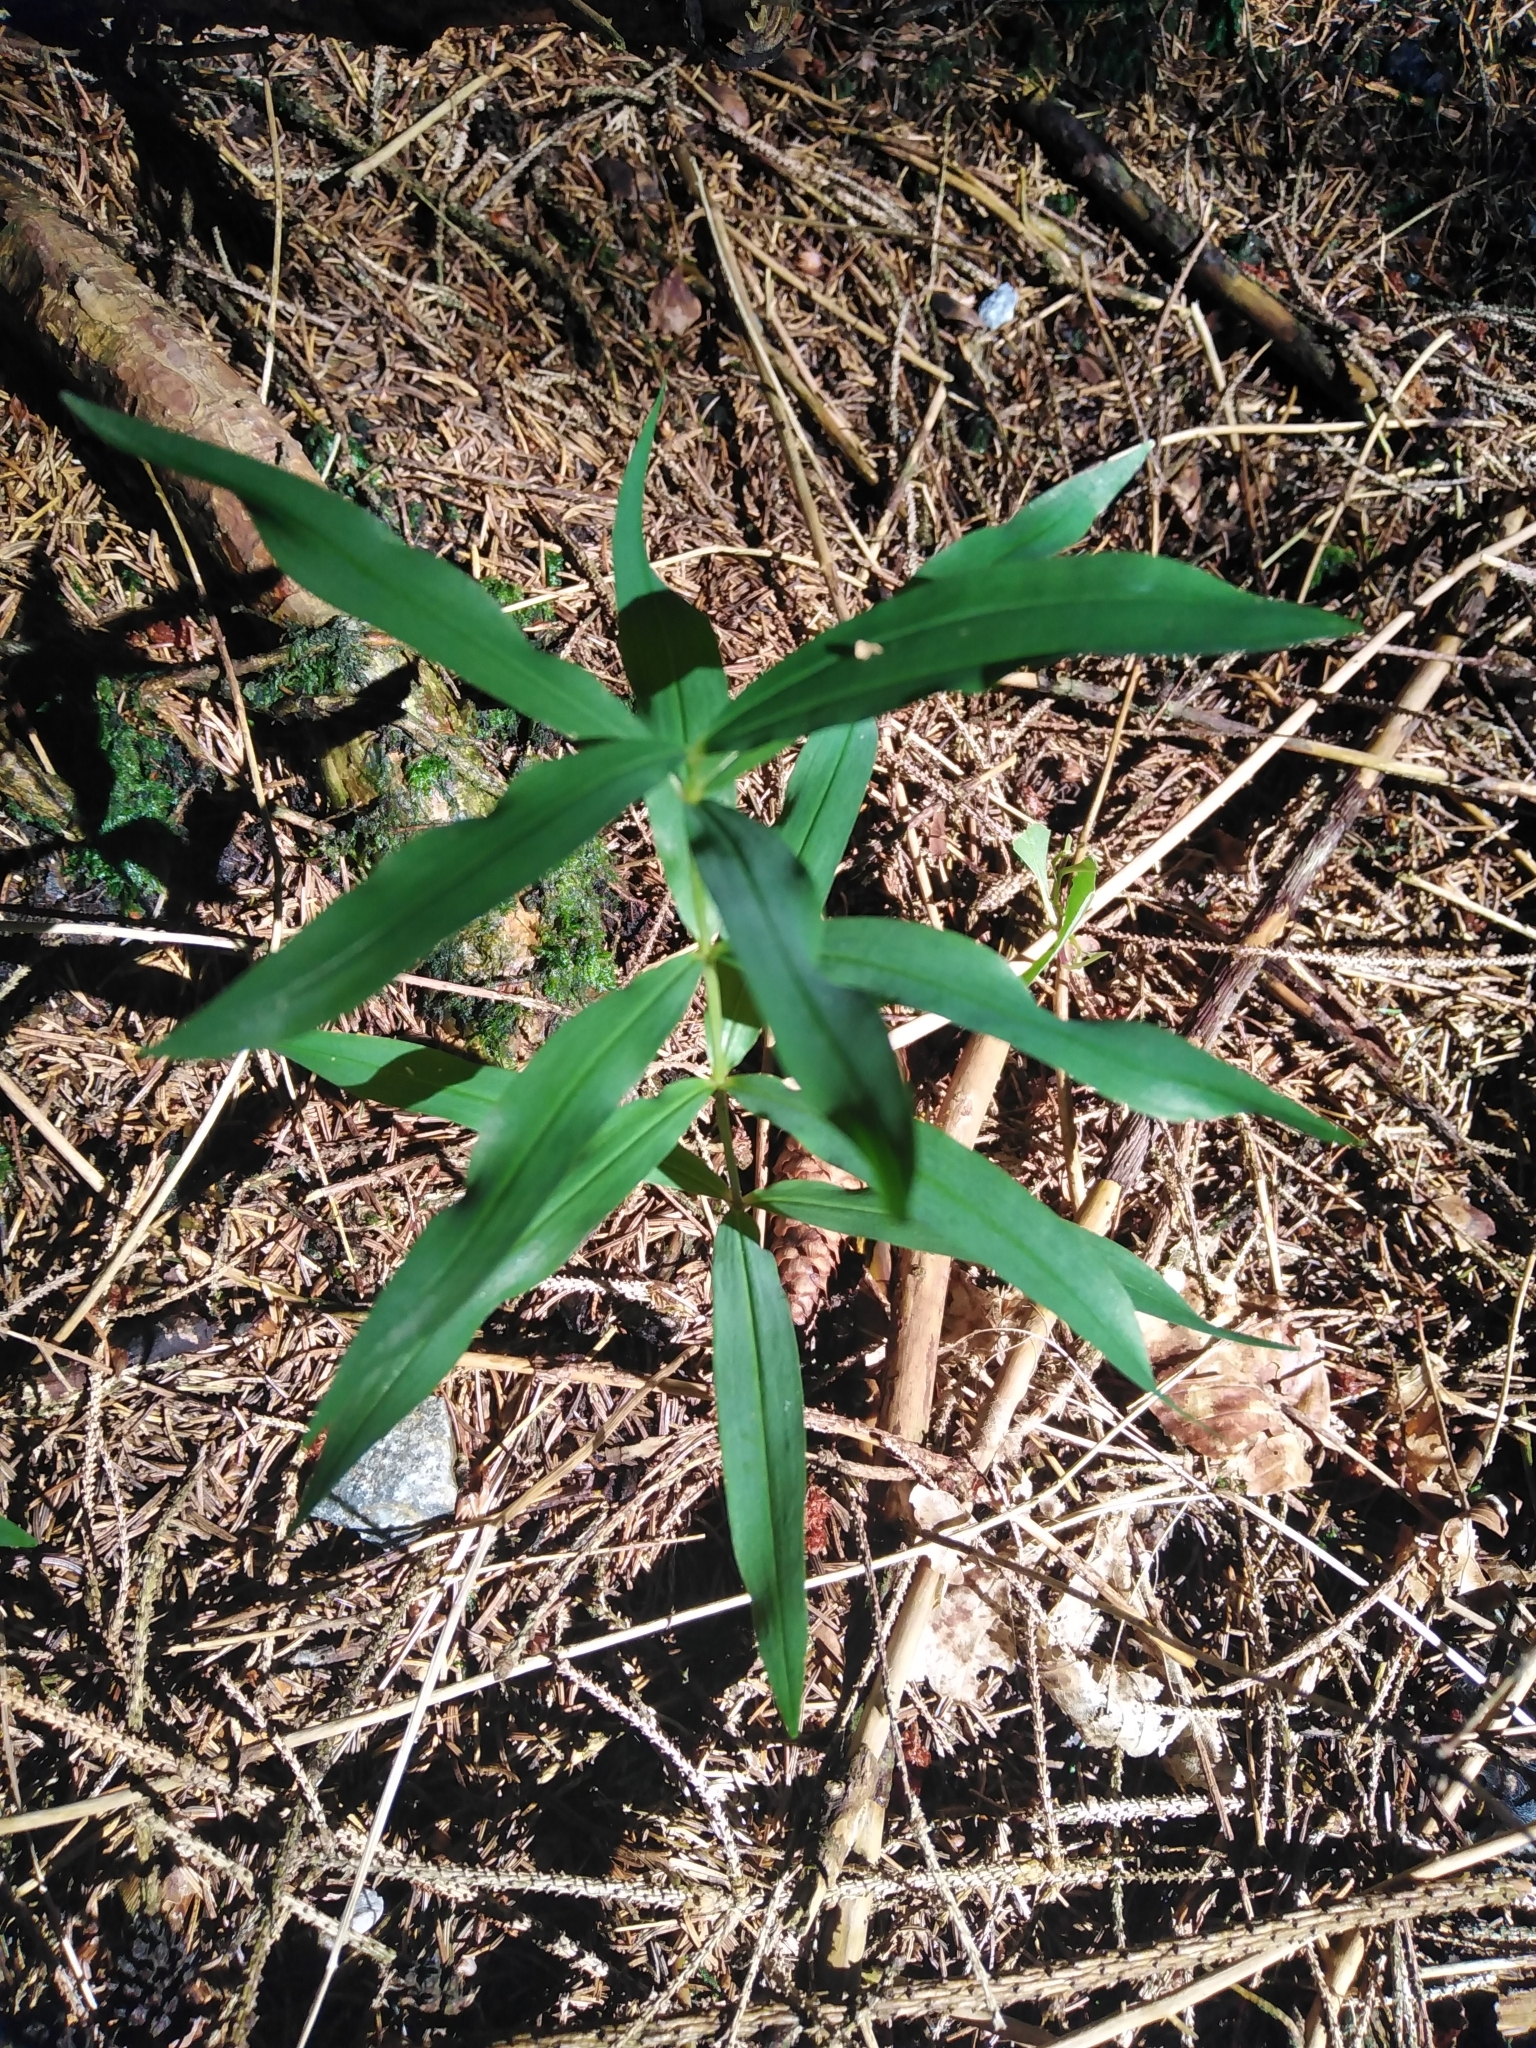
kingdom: Plantae
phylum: Tracheophyta
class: Liliopsida
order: Asparagales
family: Asparagaceae
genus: Polygonatum
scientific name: Polygonatum verticillatum
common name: Whorled solomon's-seal
